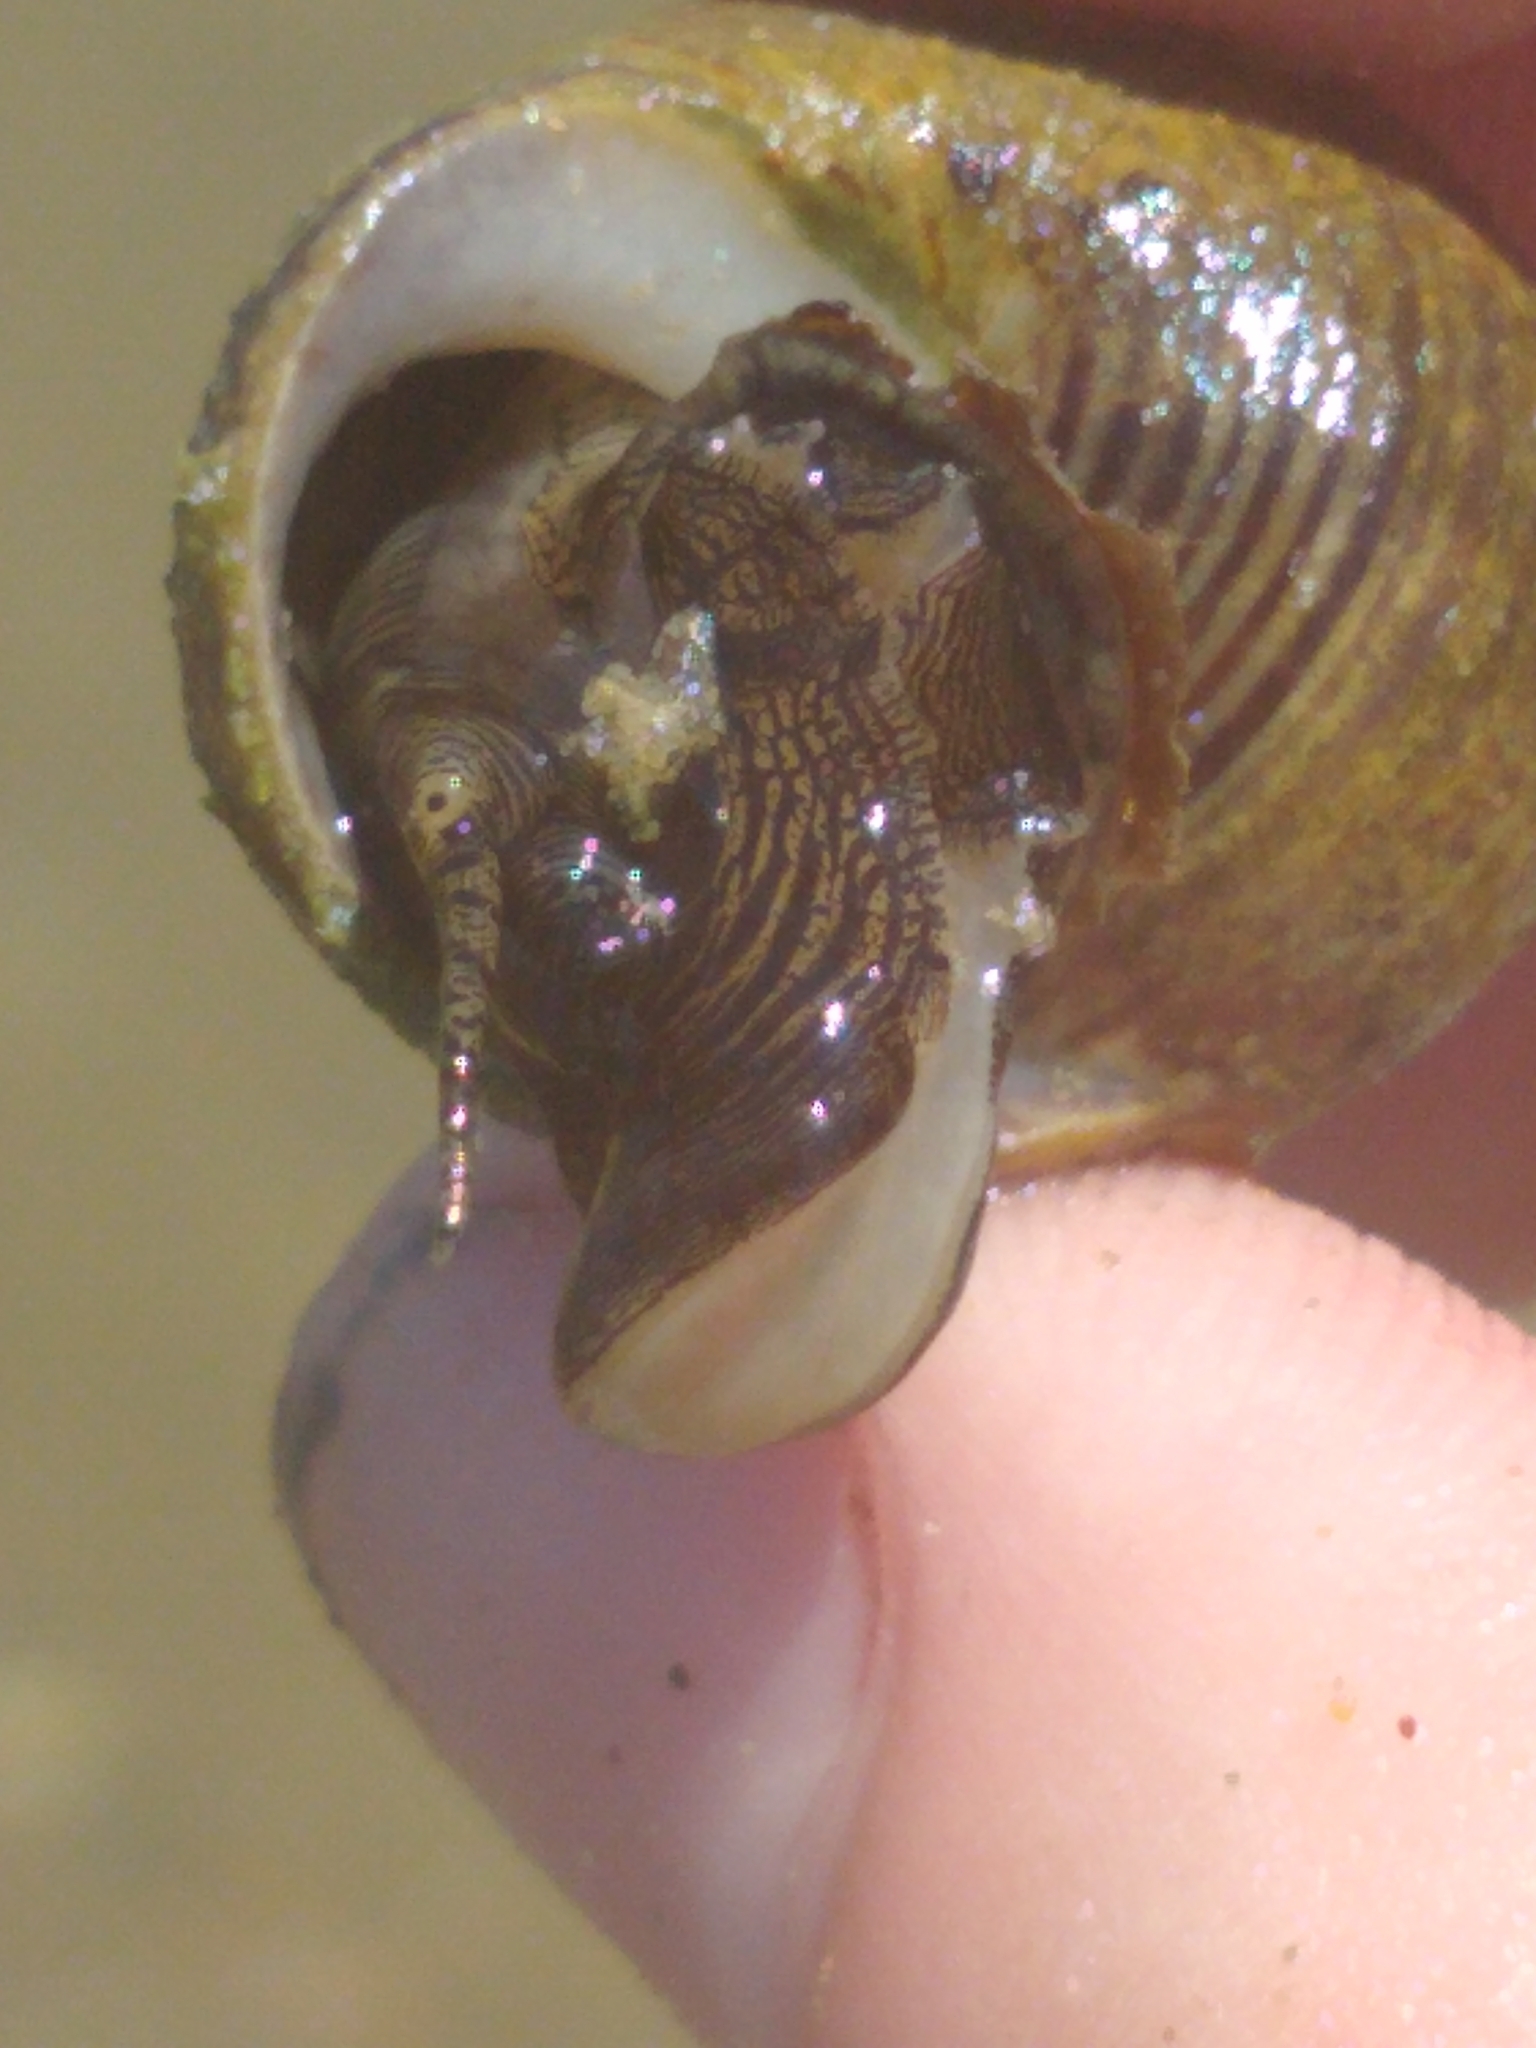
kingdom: Animalia
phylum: Mollusca
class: Gastropoda
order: Littorinimorpha
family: Littorinidae
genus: Littorina
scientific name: Littorina littorea
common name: Common periwinkle
